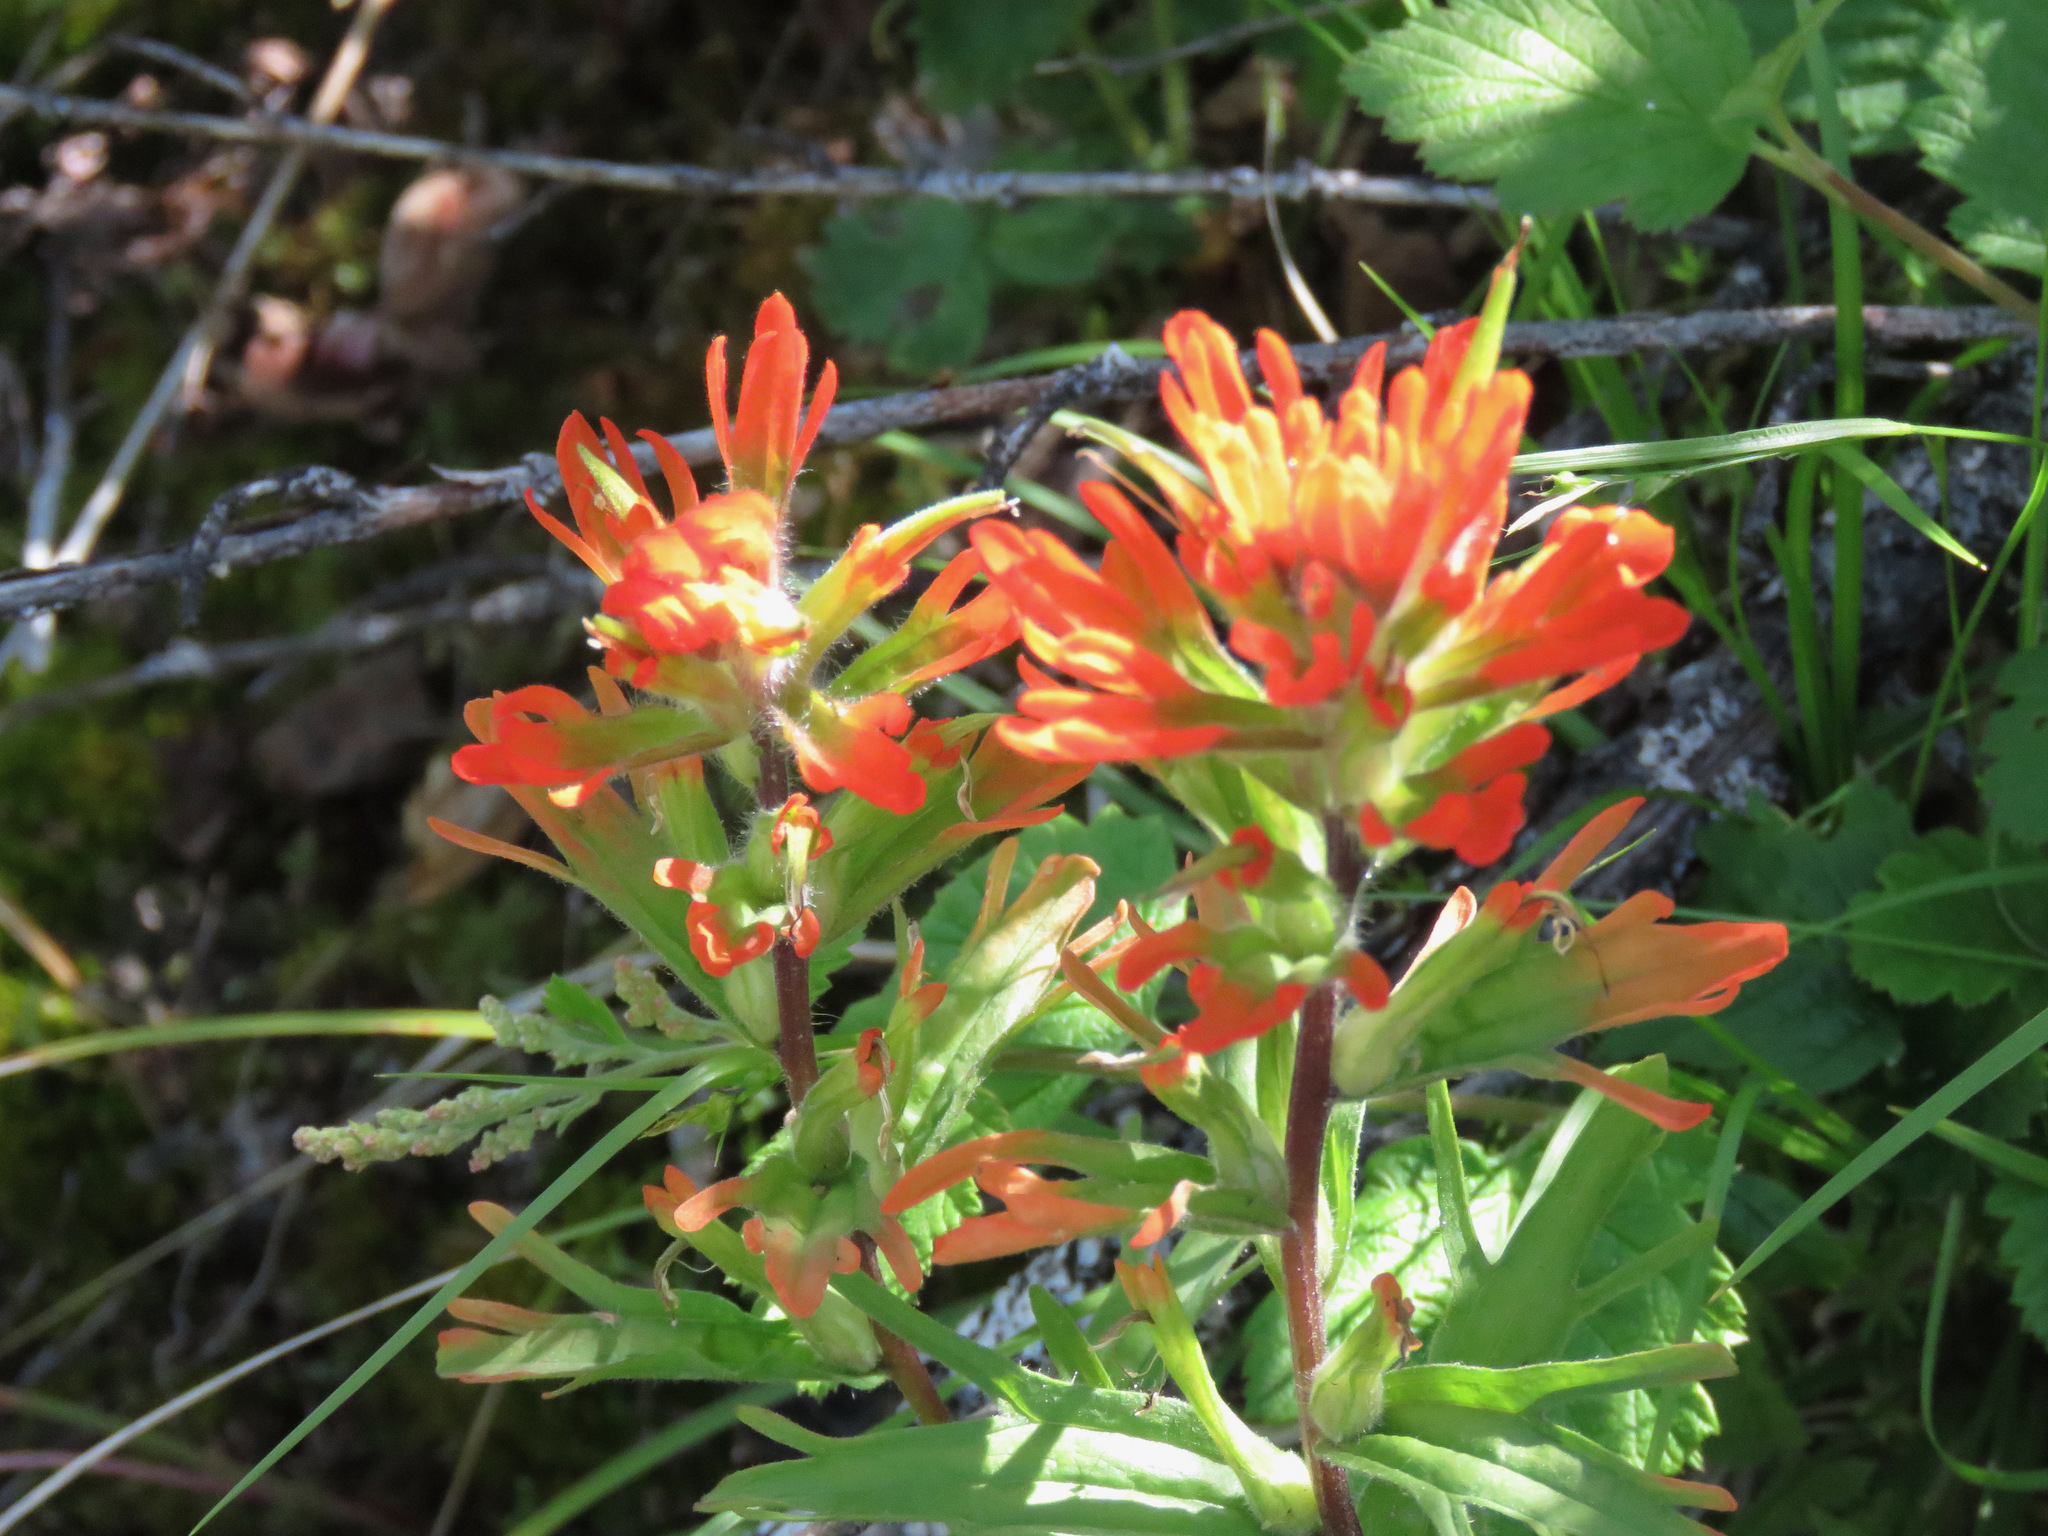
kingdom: Plantae
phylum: Tracheophyta
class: Magnoliopsida
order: Lamiales
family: Orobanchaceae
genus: Castilleja
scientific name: Castilleja hispida
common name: Bristly paintbrush
